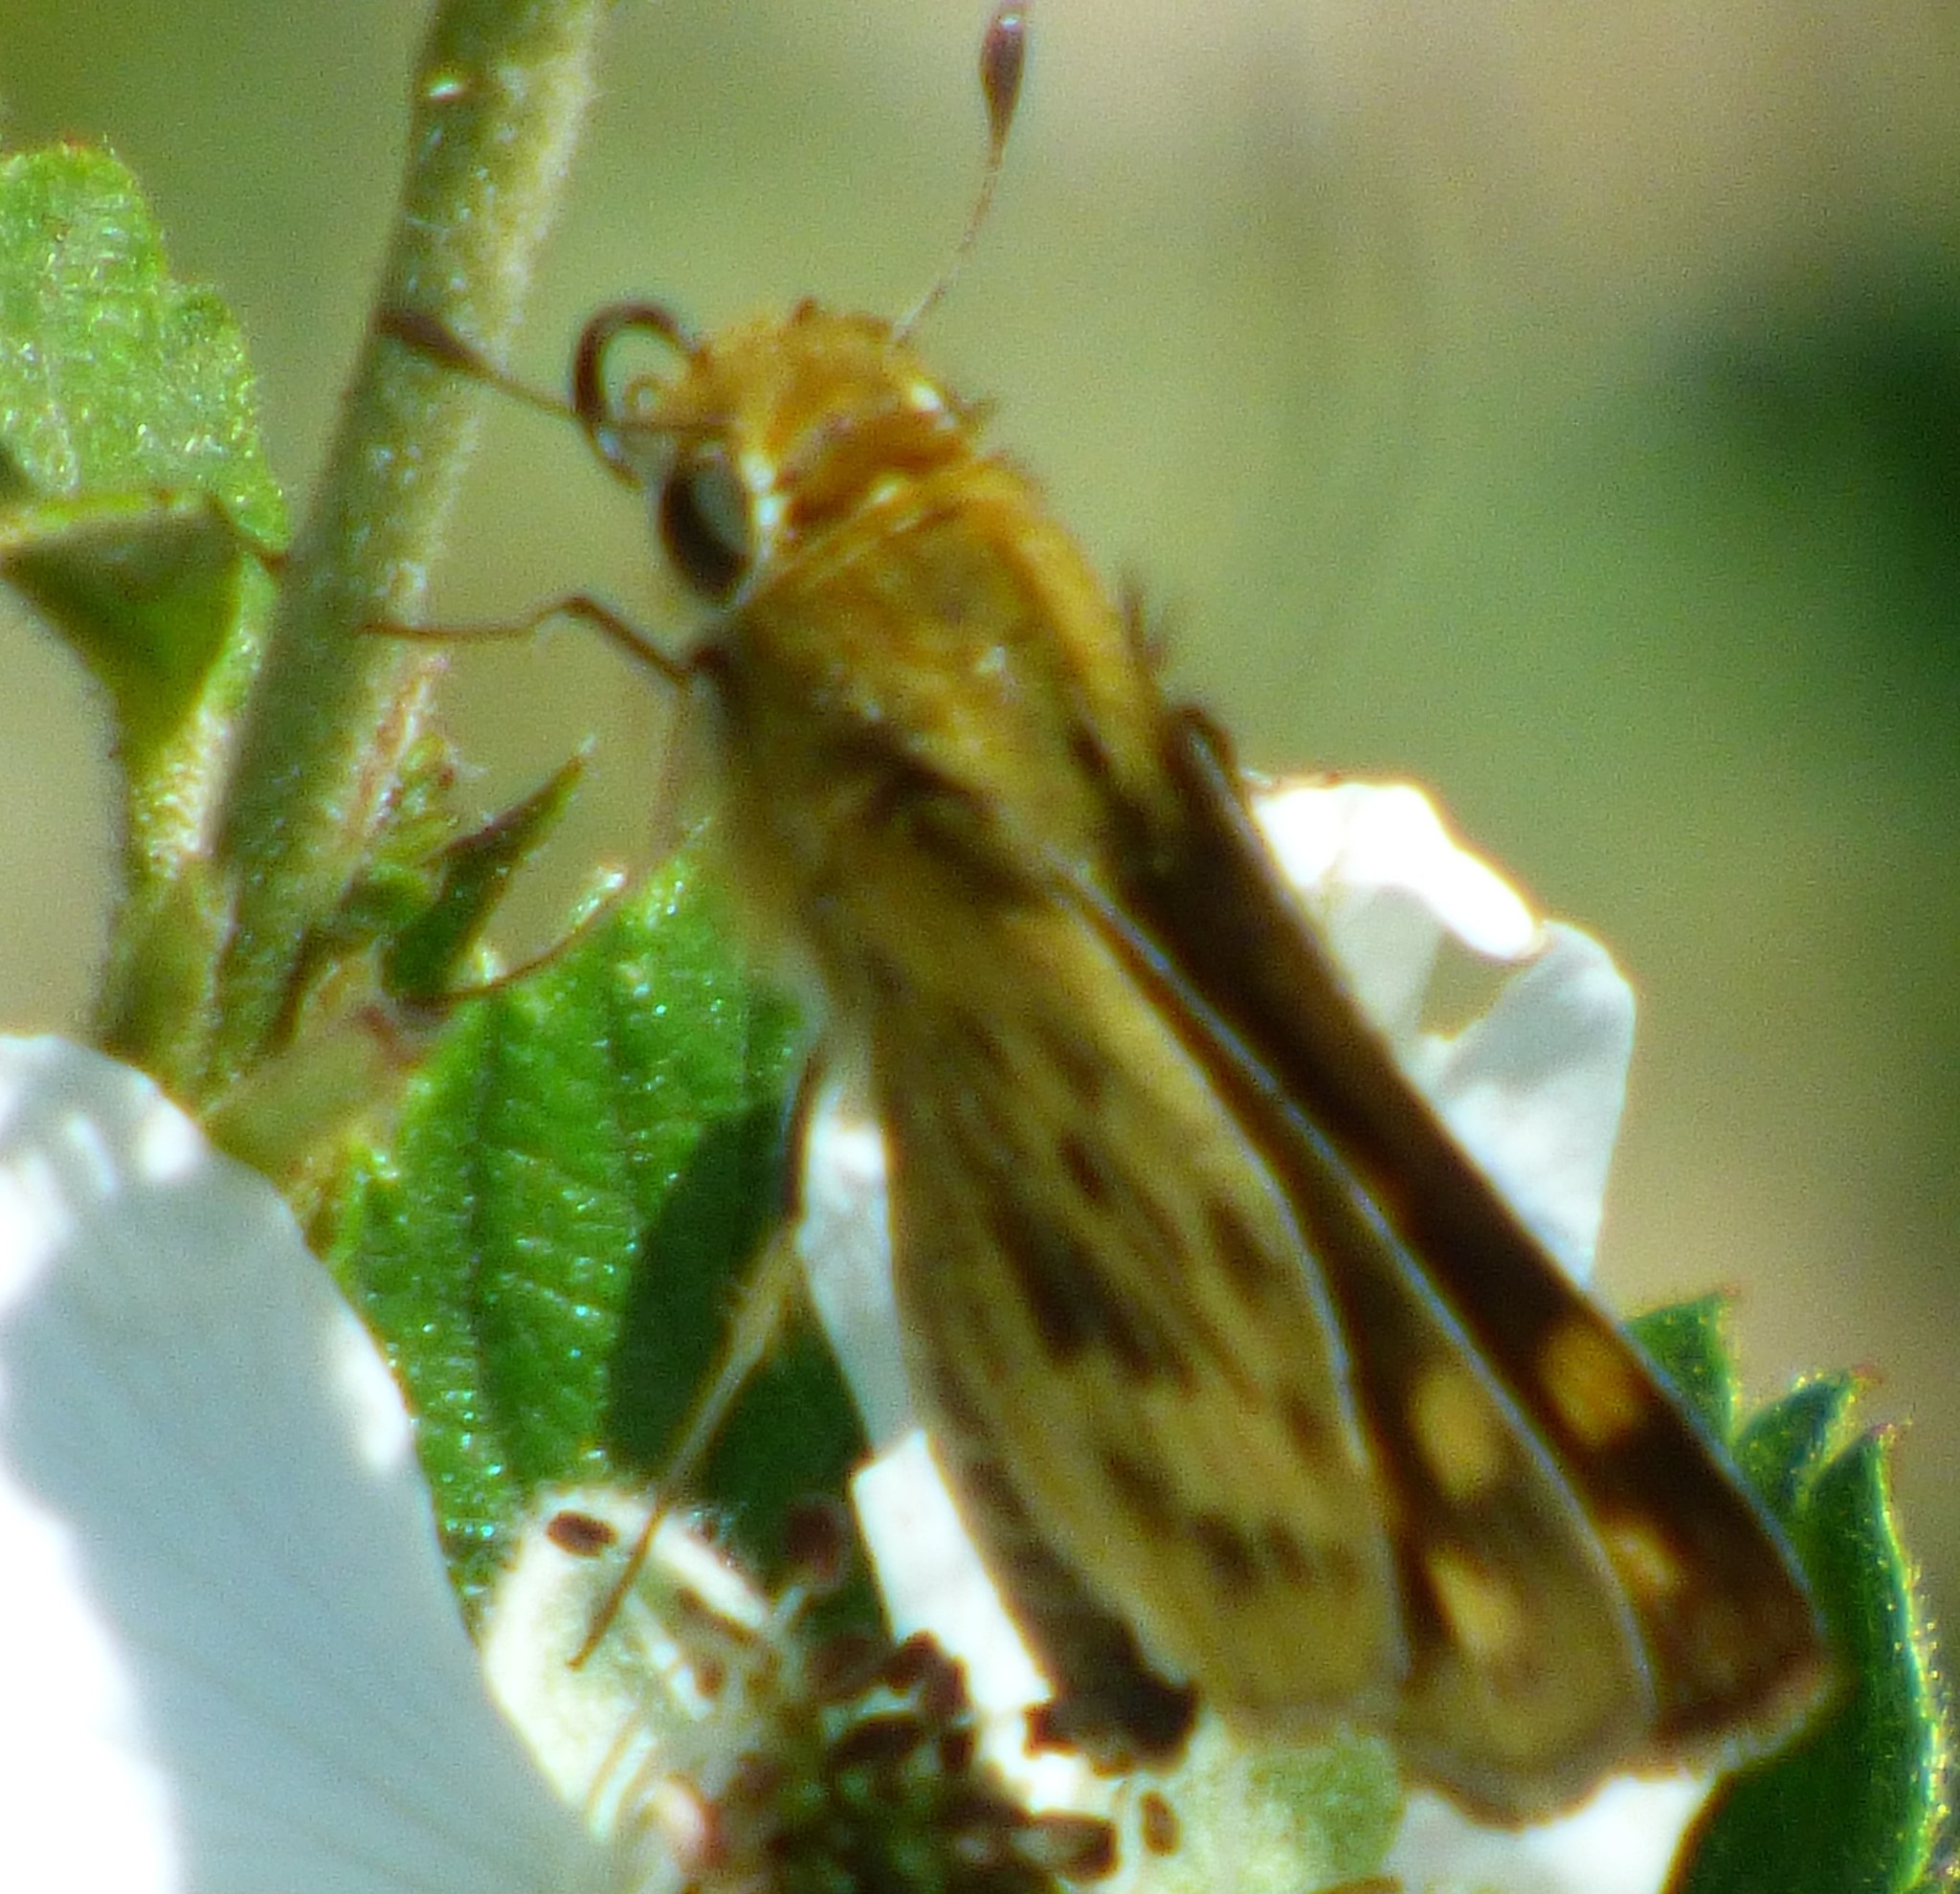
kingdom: Animalia
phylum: Arthropoda
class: Insecta
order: Lepidoptera
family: Hesperiidae
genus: Hylephila
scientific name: Hylephila phyleus
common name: Fiery skipper
